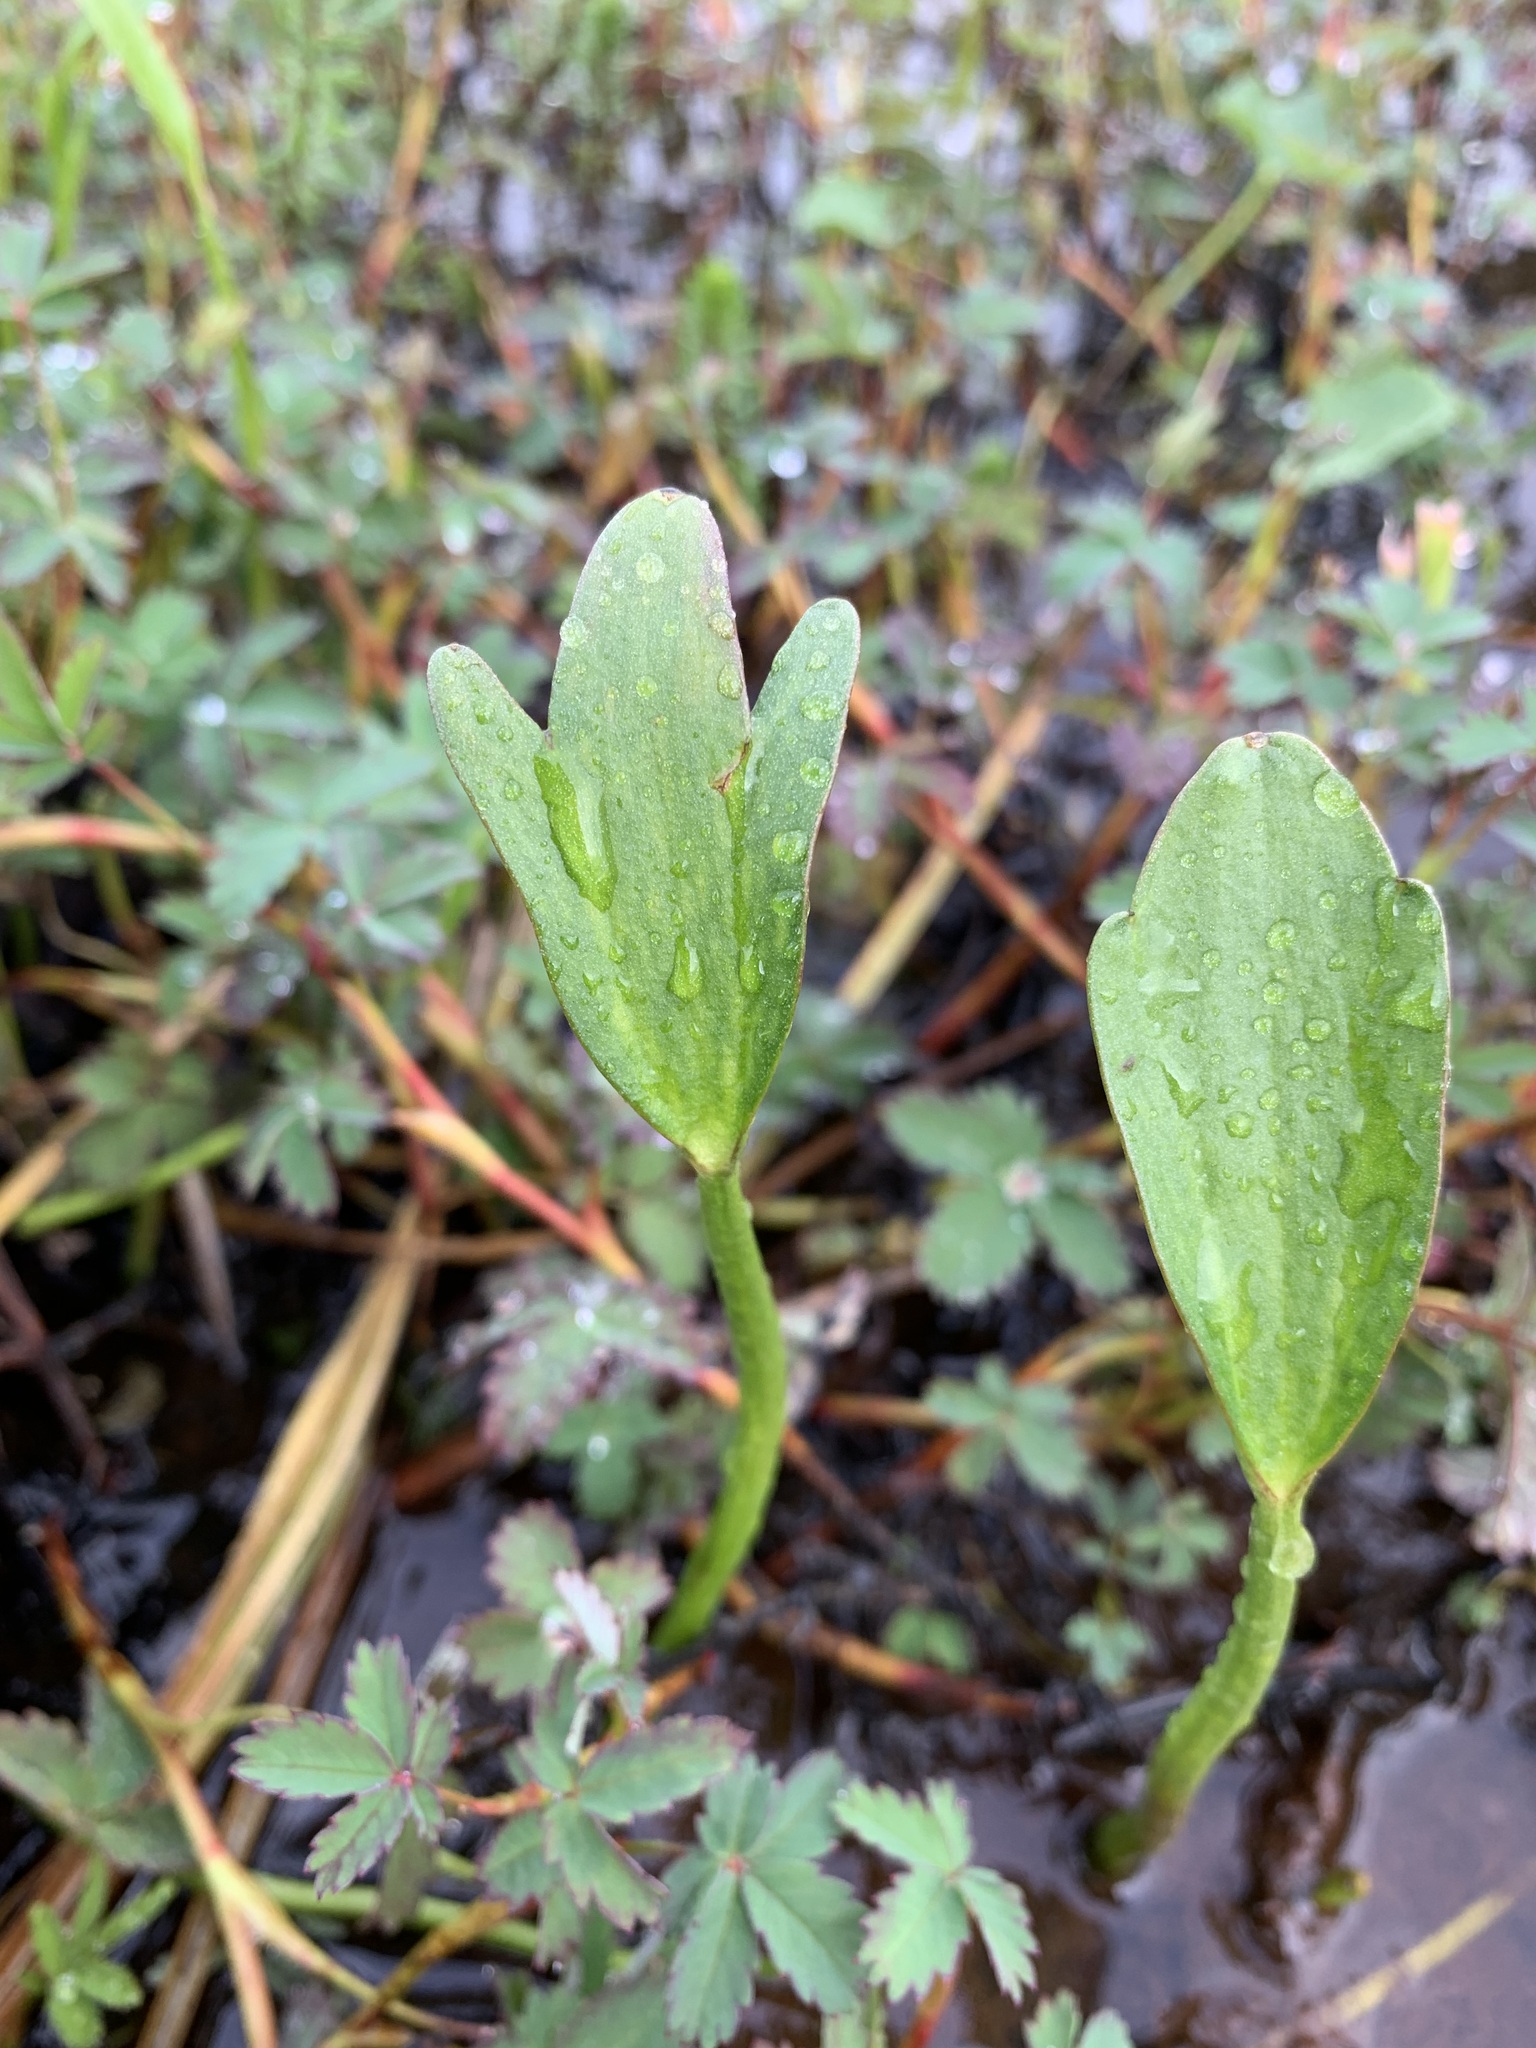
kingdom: Plantae
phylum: Tracheophyta
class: Magnoliopsida
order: Ranunculales
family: Ranunculaceae
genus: Coptidium
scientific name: Coptidium pallasii
